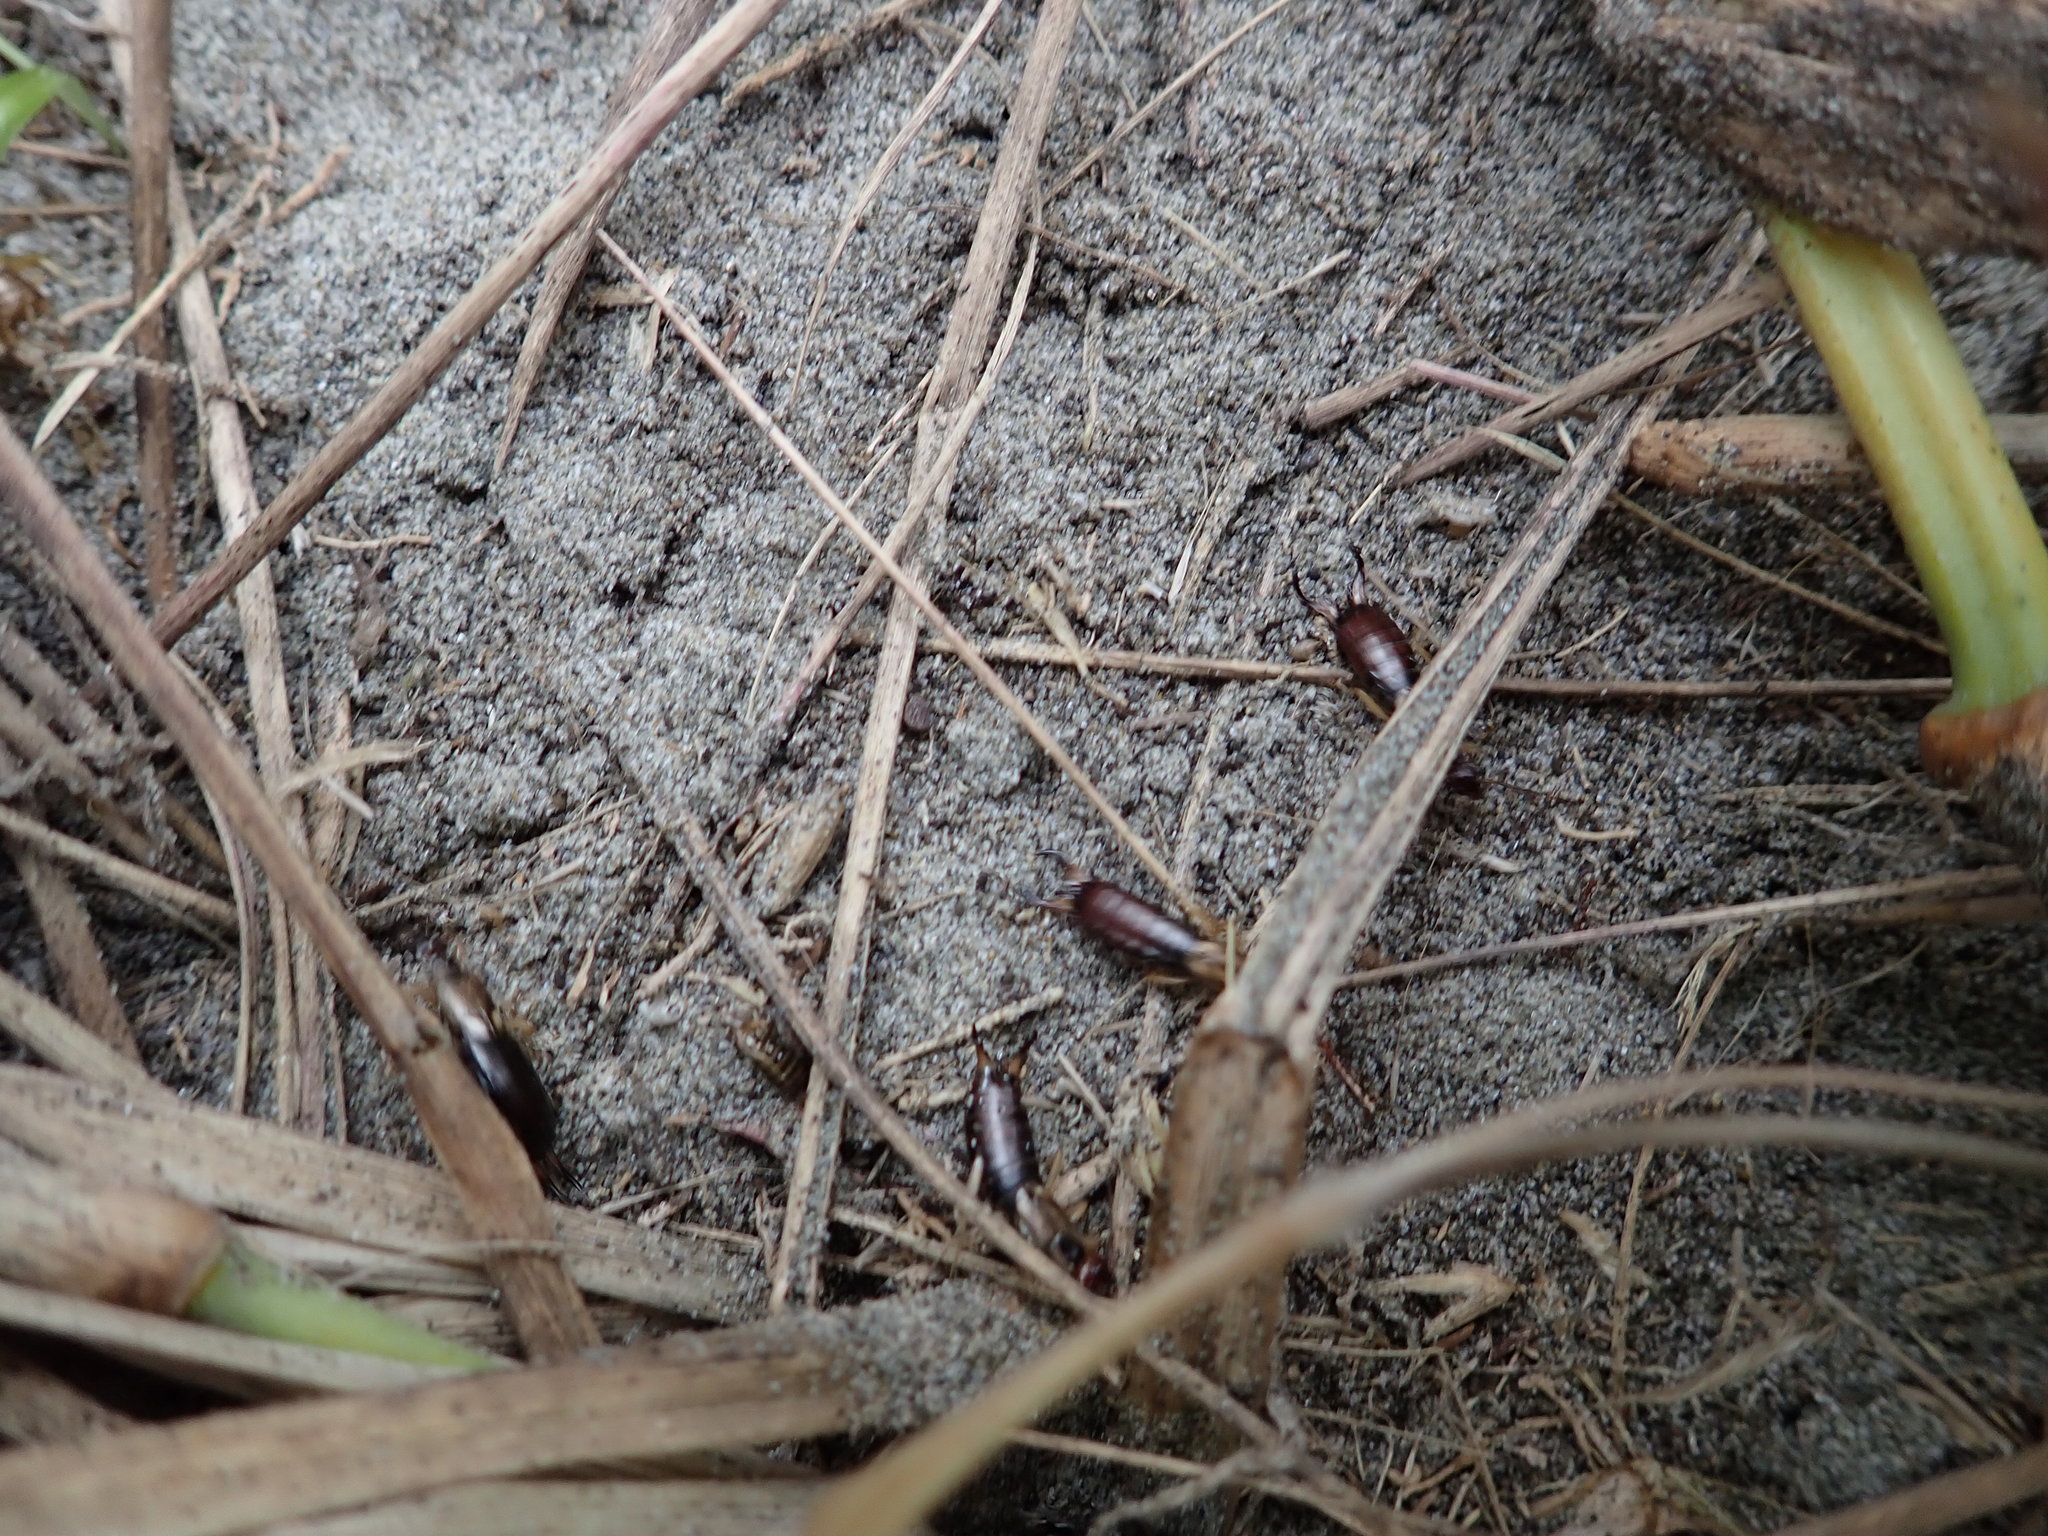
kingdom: Animalia
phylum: Arthropoda
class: Insecta
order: Dermaptera
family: Forficulidae
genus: Forficula
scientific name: Forficula
